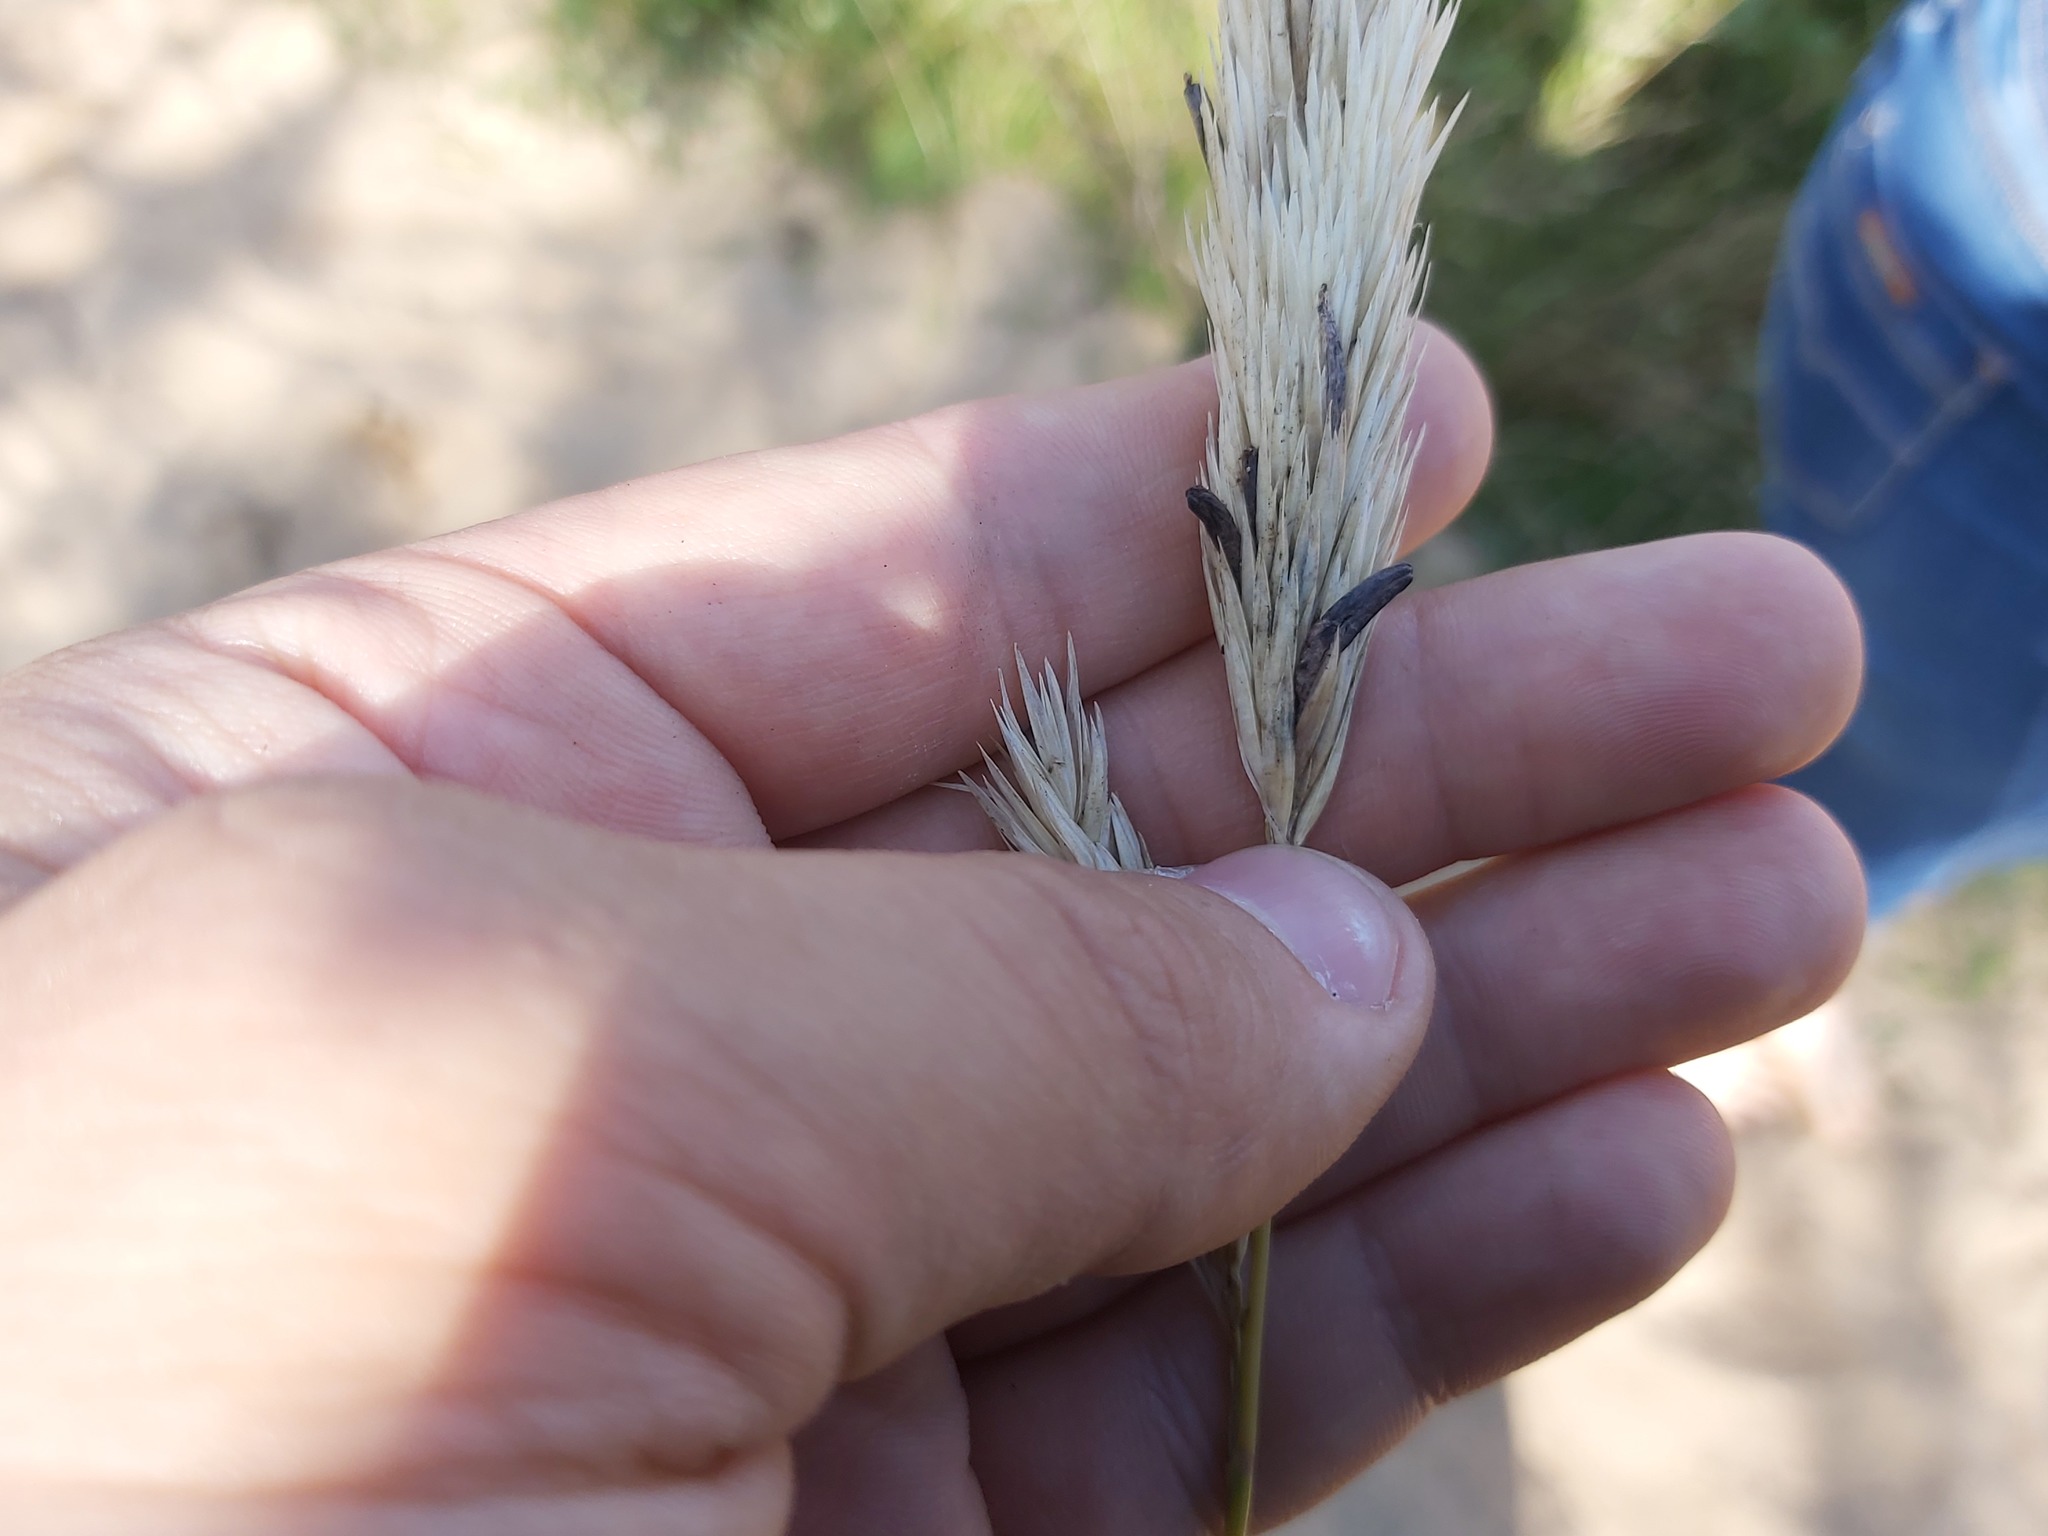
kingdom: Fungi
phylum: Ascomycota
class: Sordariomycetes
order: Hypocreales
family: Clavicipitaceae
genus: Claviceps
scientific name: Claviceps purpurea
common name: Rye ergot
